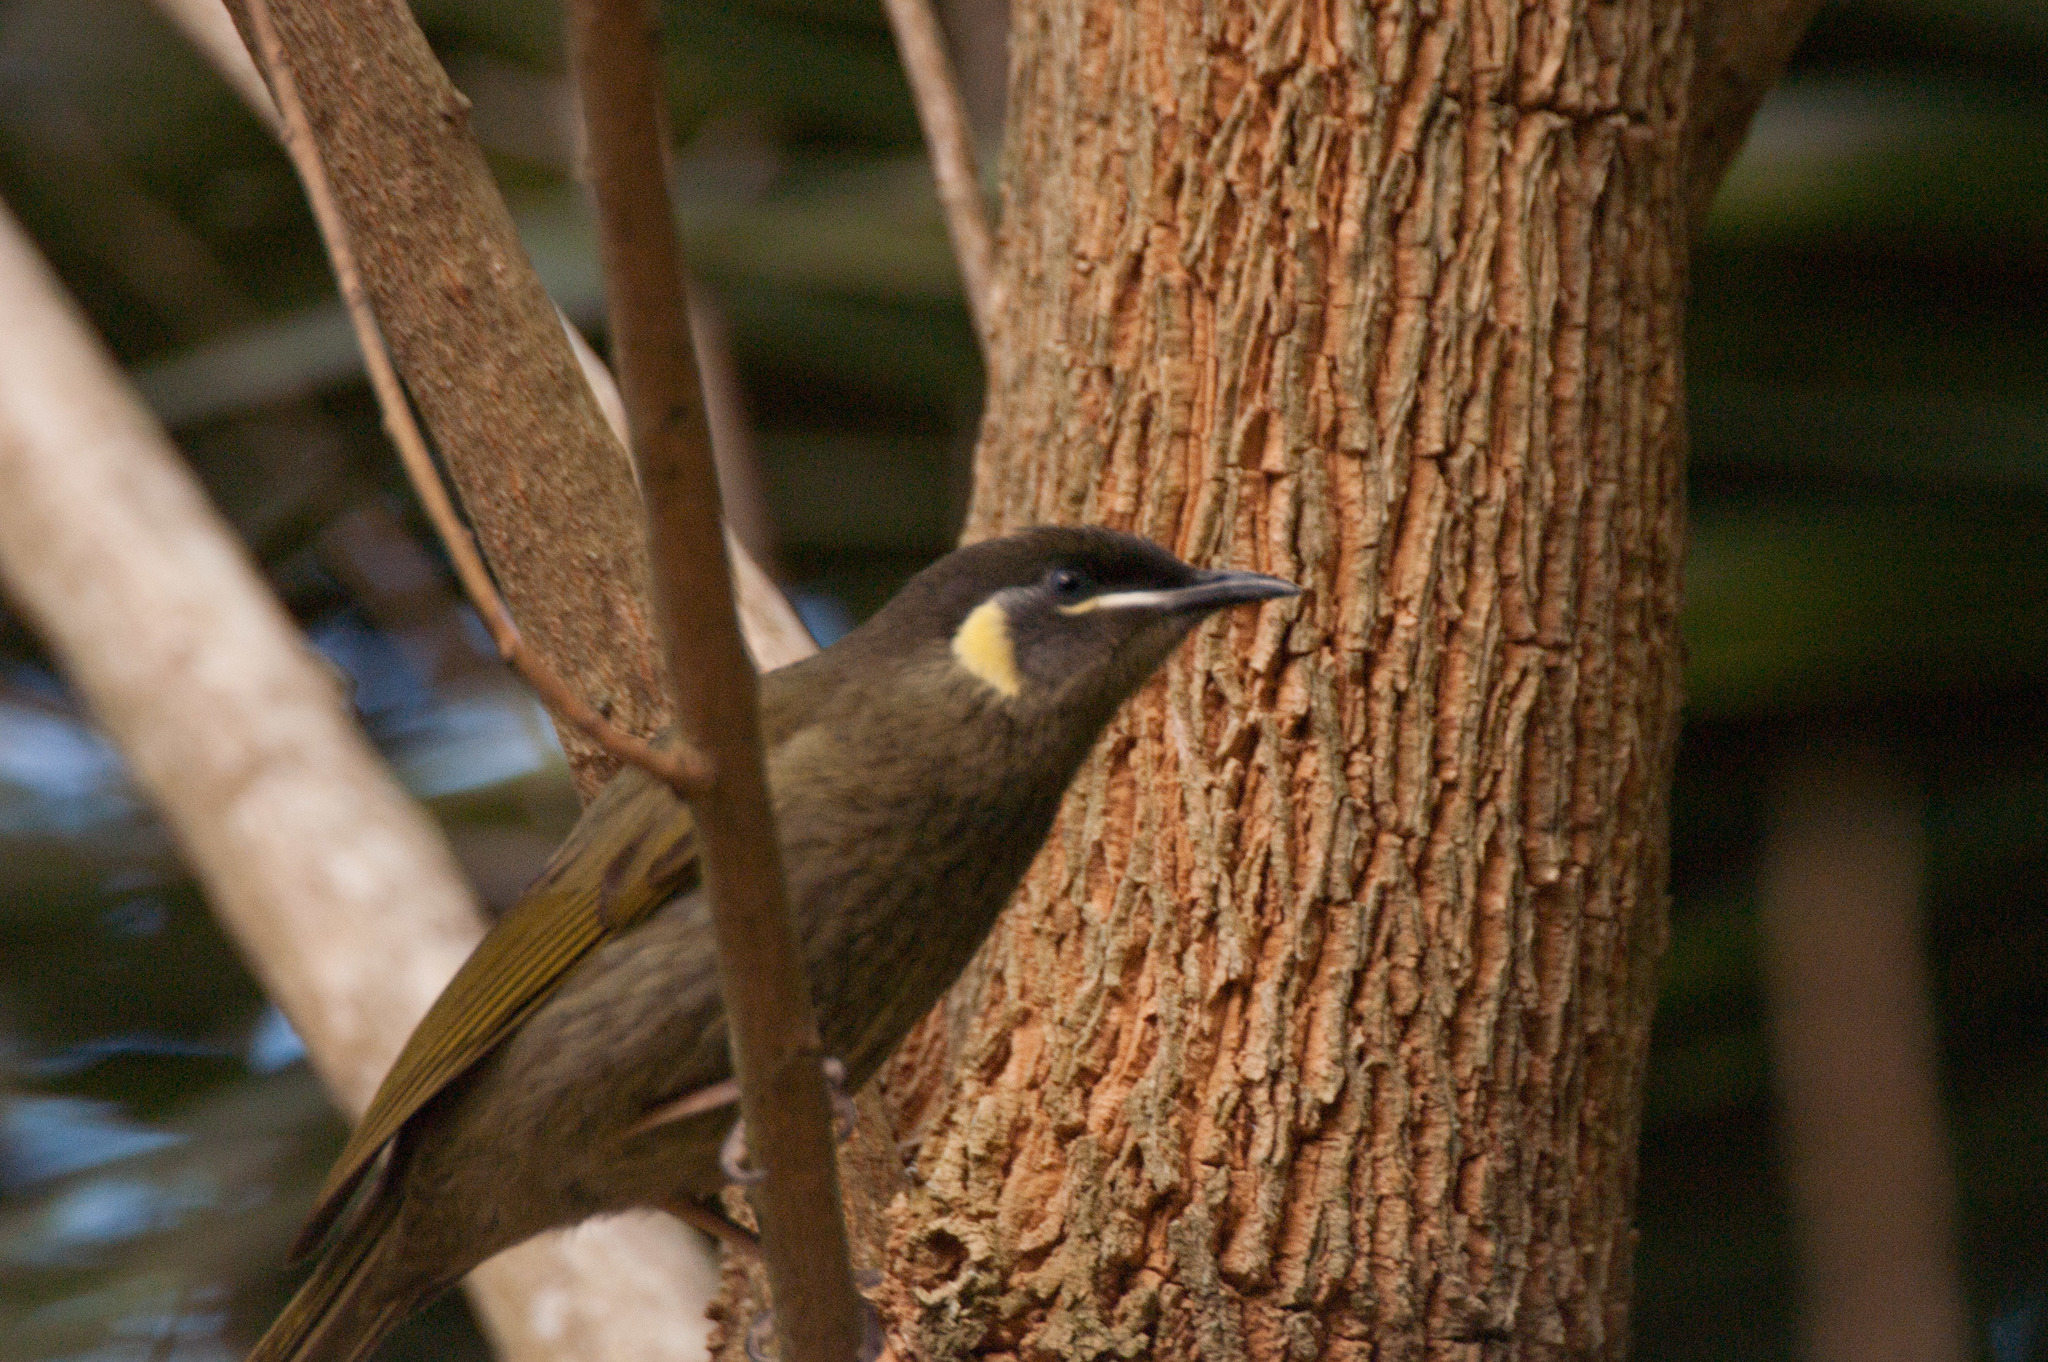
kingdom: Animalia
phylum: Chordata
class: Aves
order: Passeriformes
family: Meliphagidae
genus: Meliphaga
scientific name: Meliphaga lewinii
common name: Lewin's honeyeater
